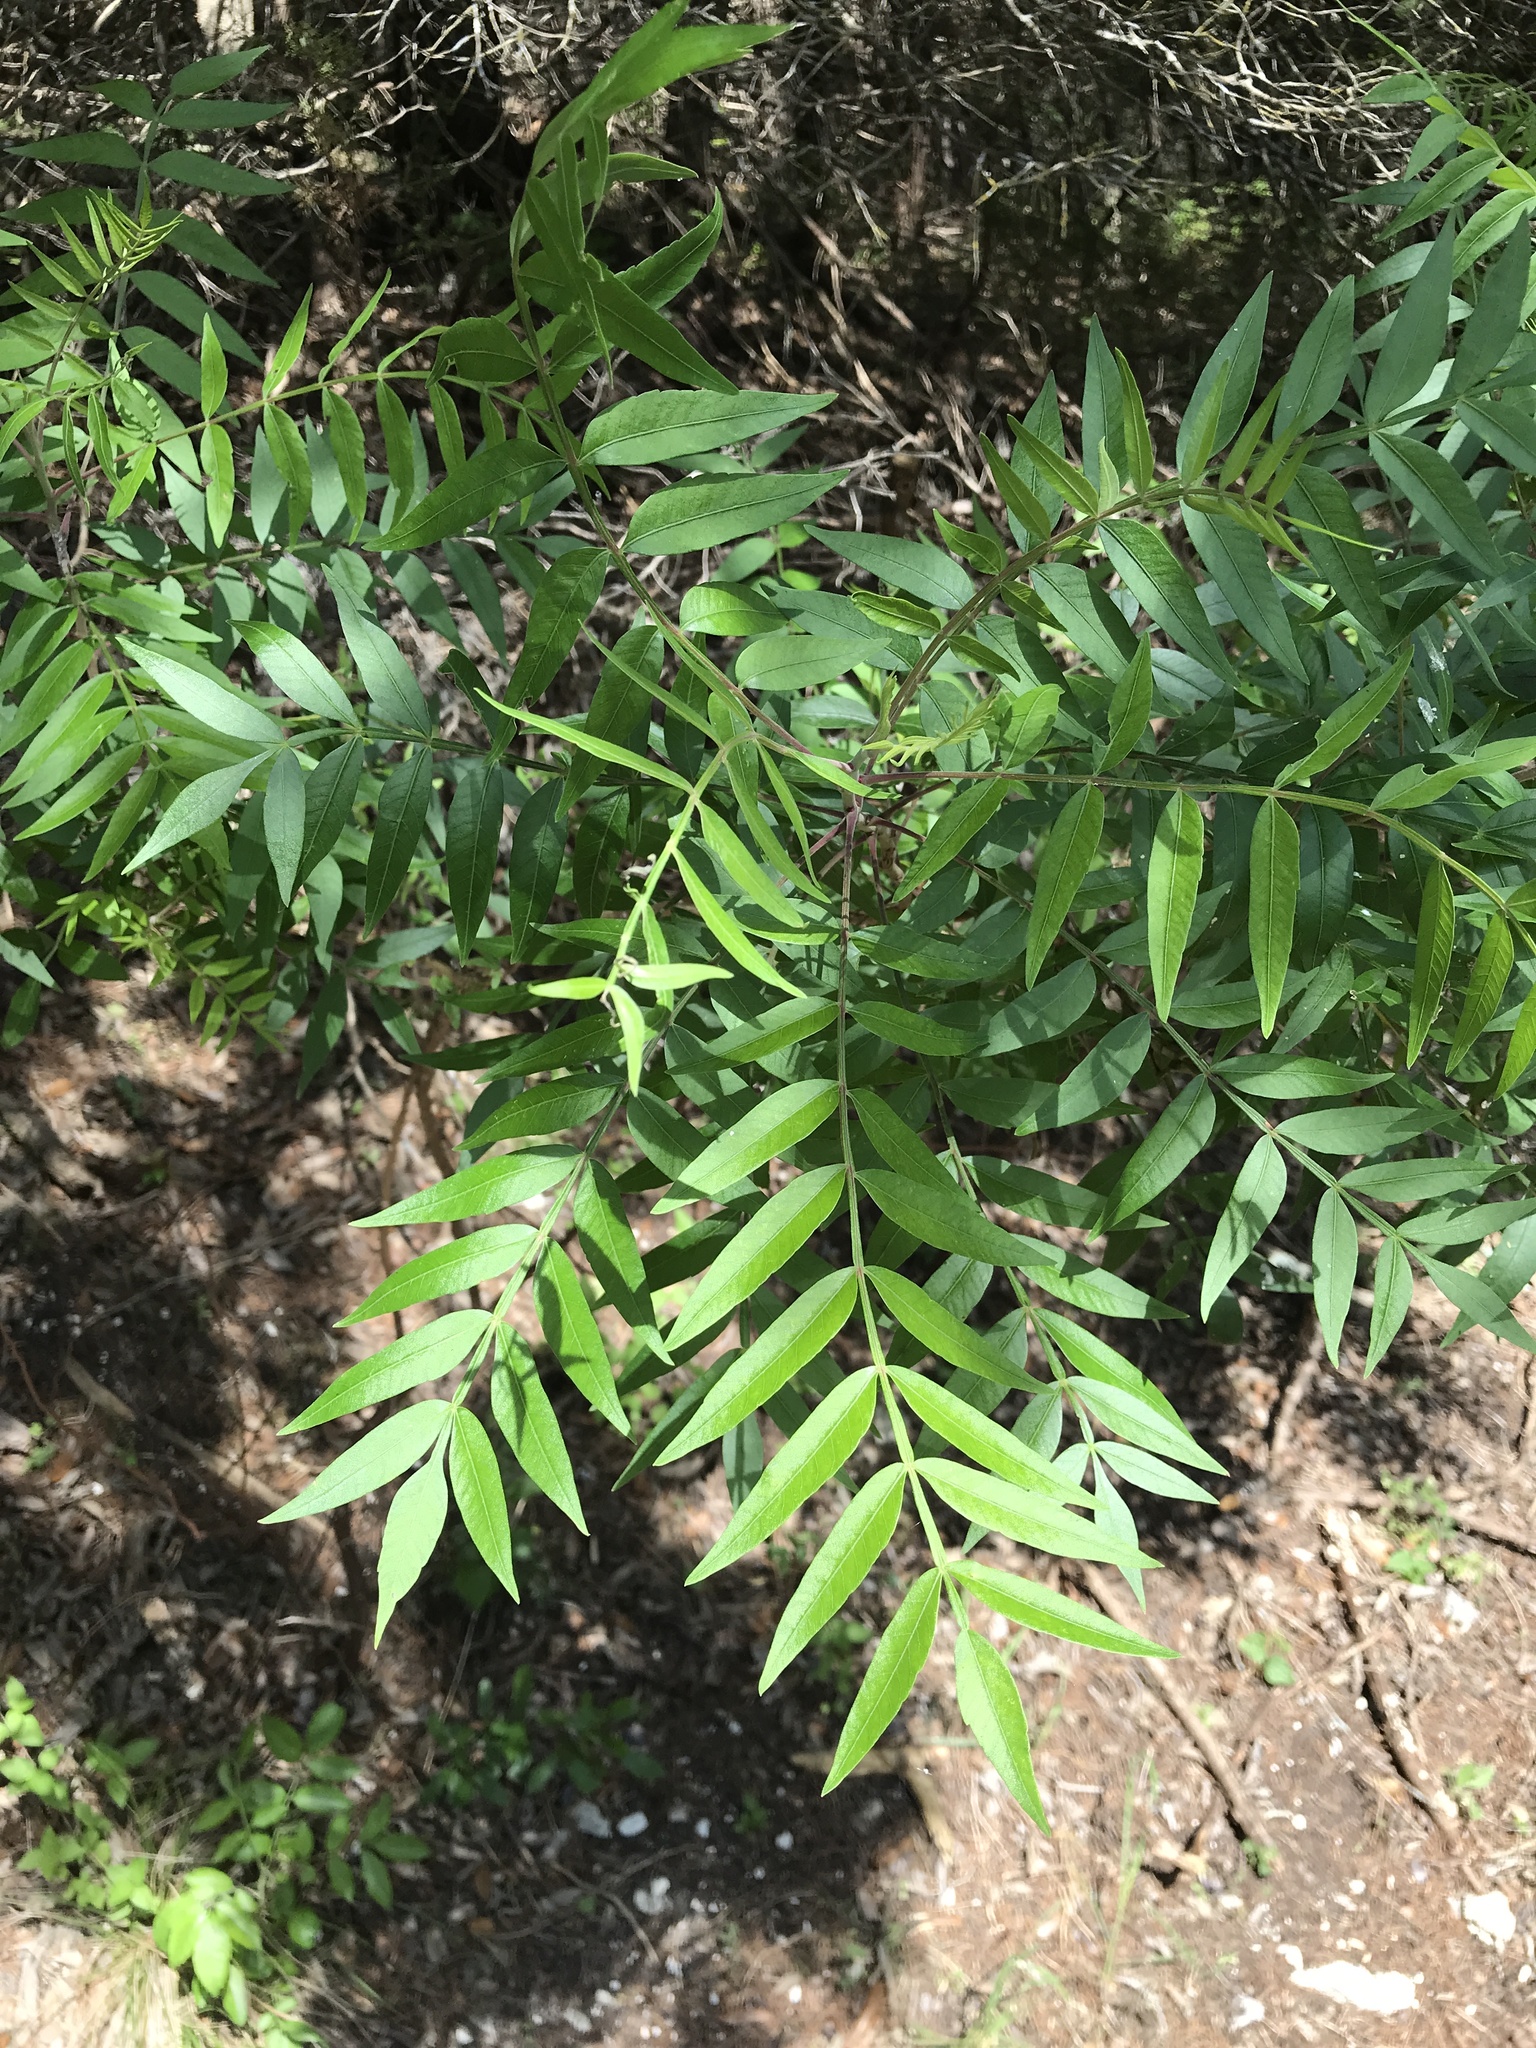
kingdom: Plantae
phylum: Tracheophyta
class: Magnoliopsida
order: Sapindales
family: Anacardiaceae
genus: Rhus
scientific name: Rhus lanceolata
